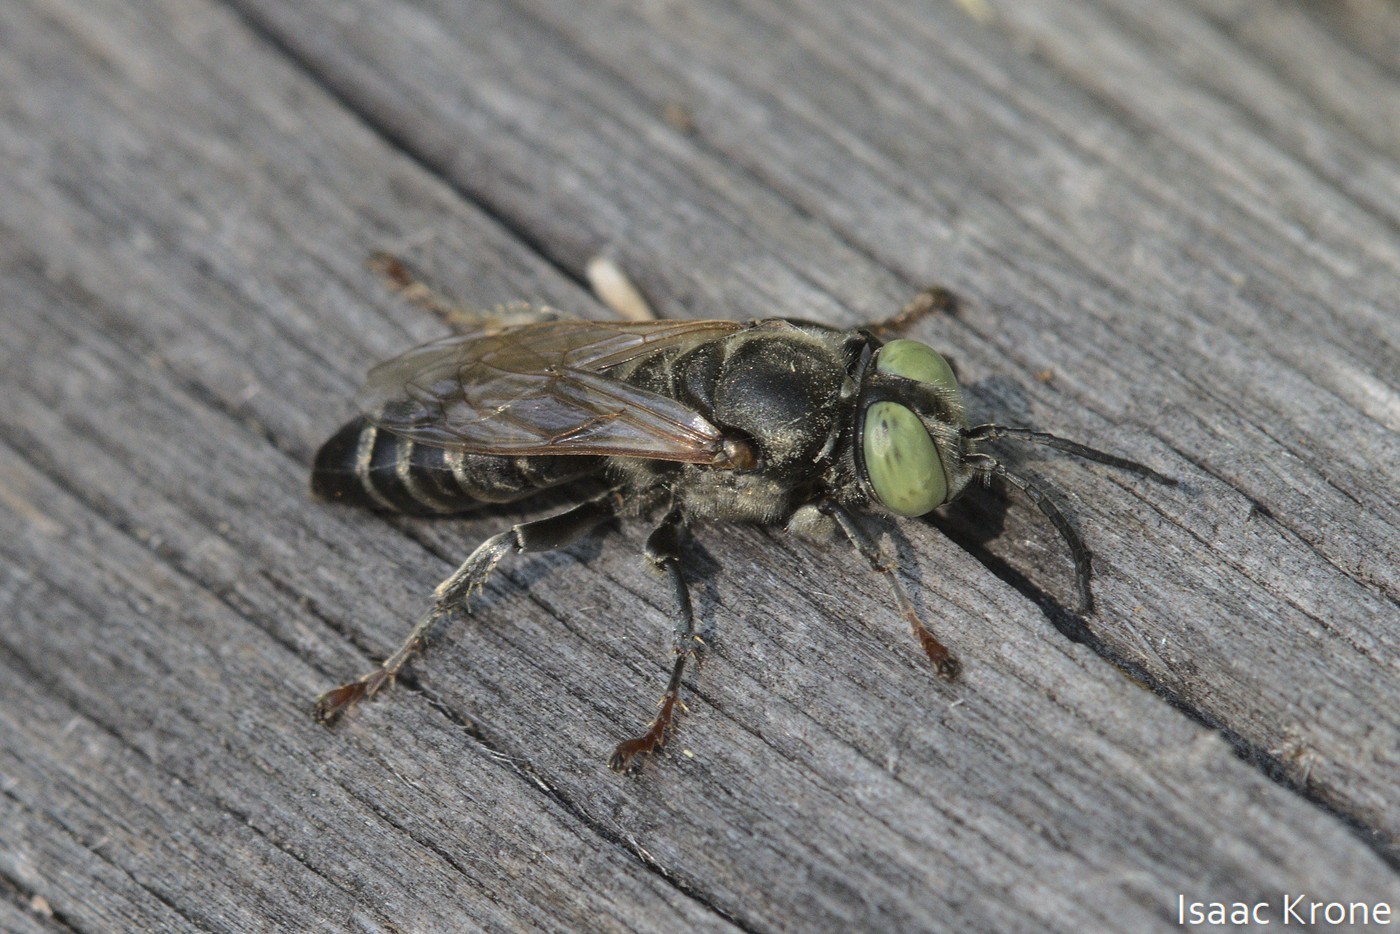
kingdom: Animalia
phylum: Arthropoda
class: Insecta
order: Hymenoptera
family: Crabronidae
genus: Tachytes
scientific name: Tachytes pepticus
